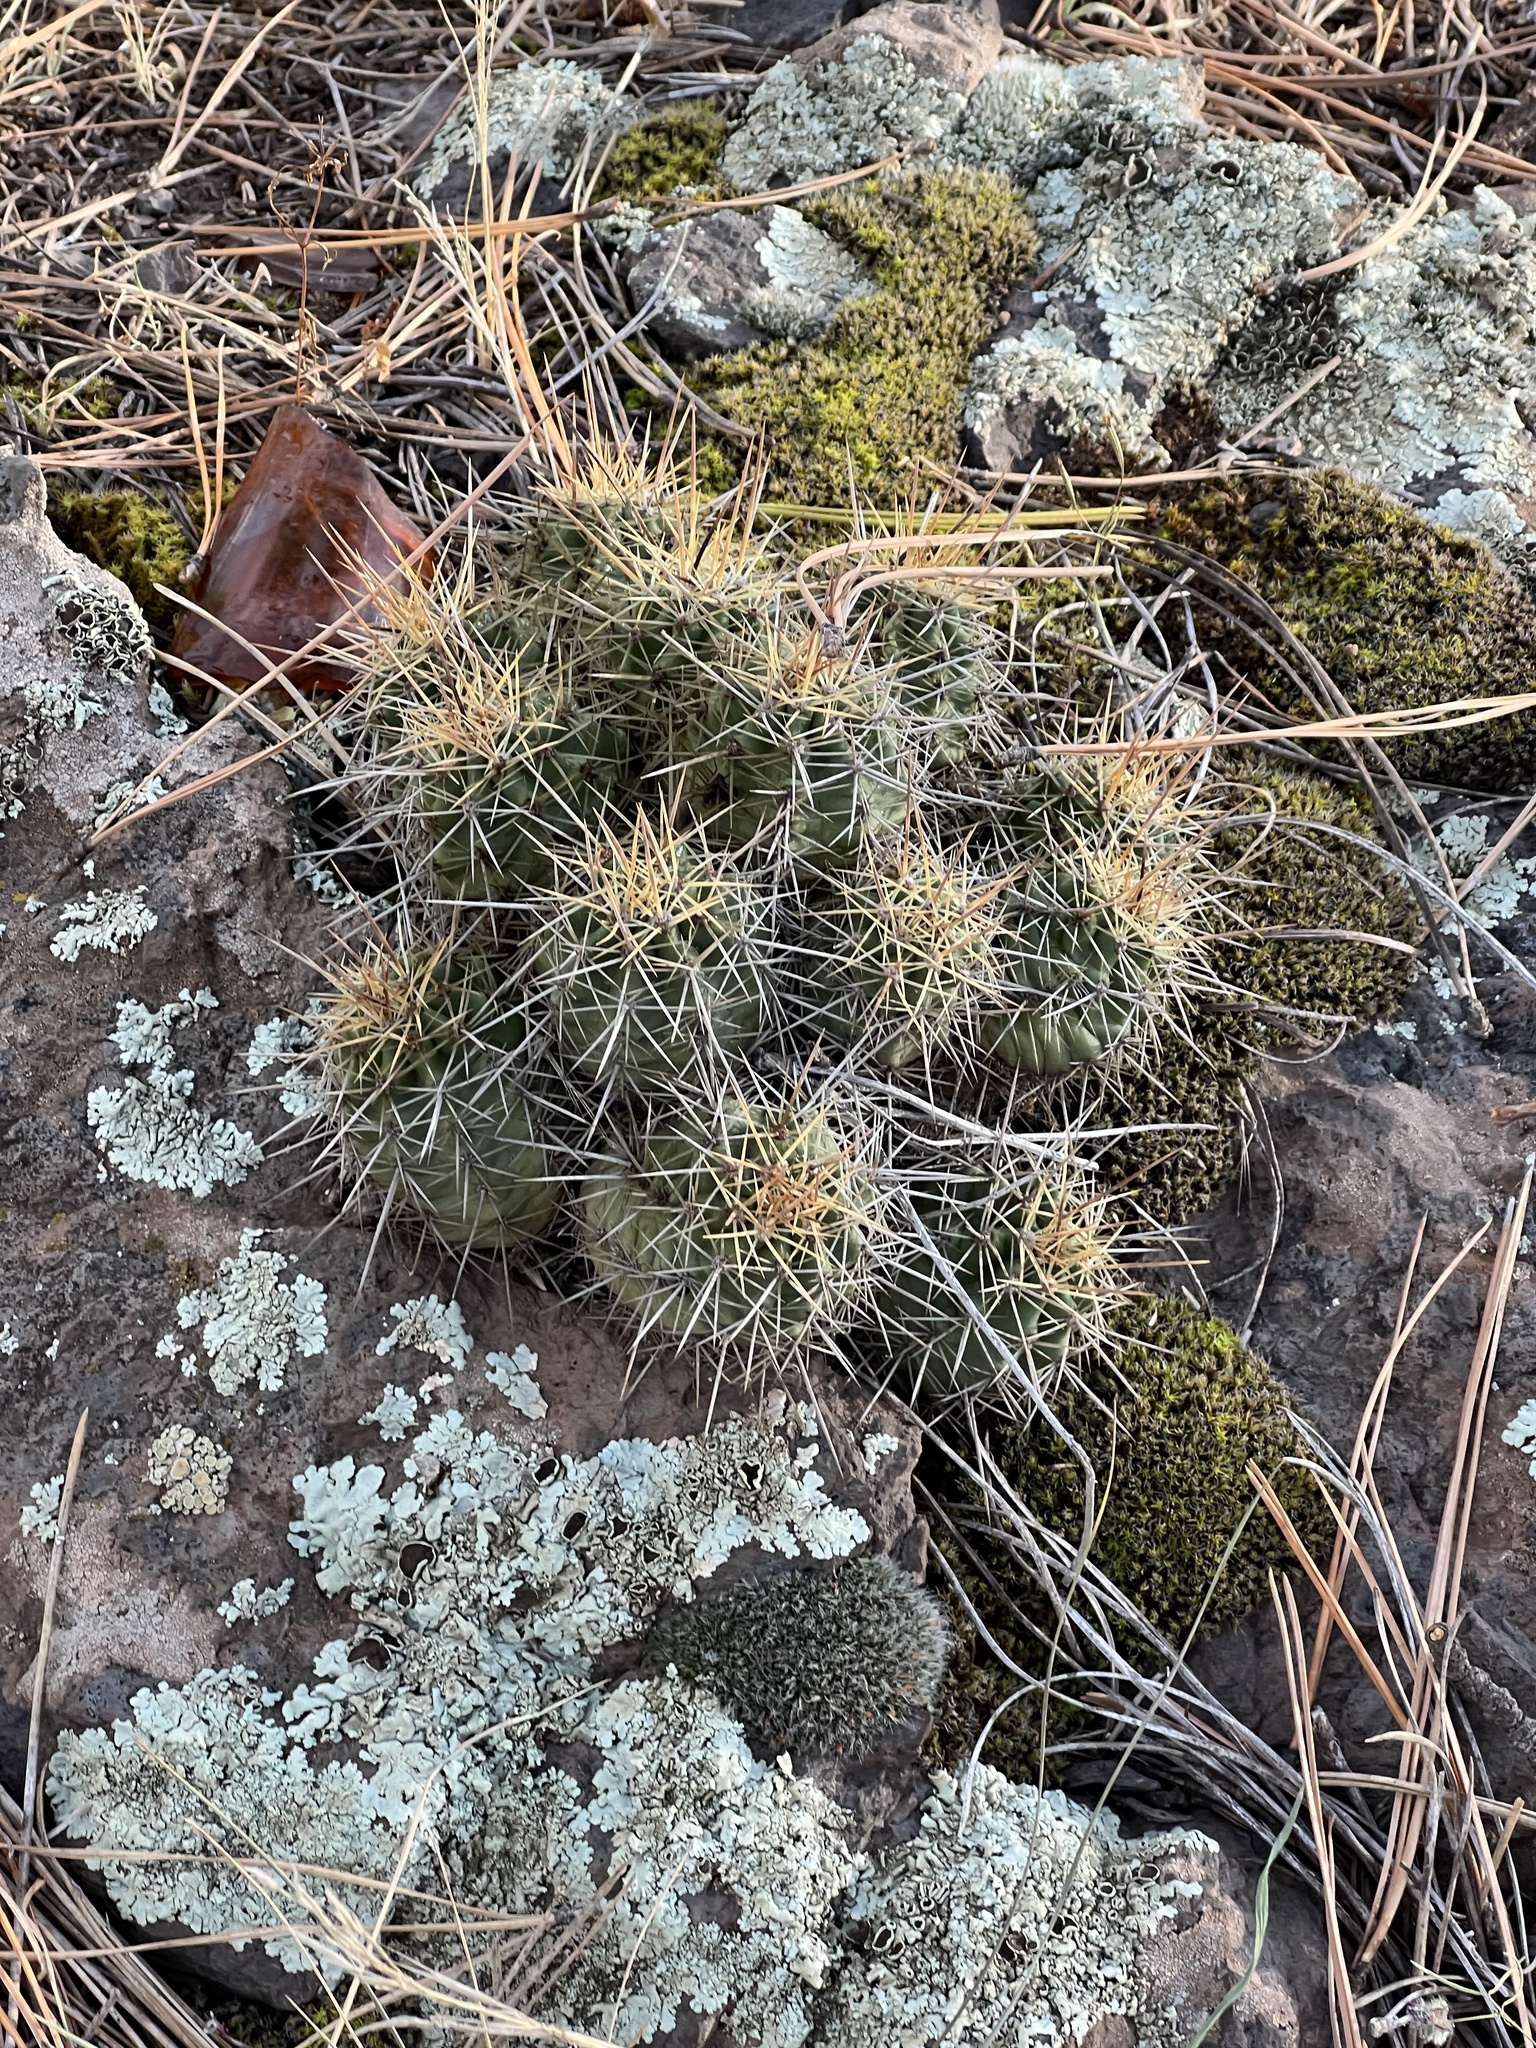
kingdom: Plantae
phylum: Tracheophyta
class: Magnoliopsida
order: Caryophyllales
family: Cactaceae
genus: Echinocereus
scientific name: Echinocereus bakeri
